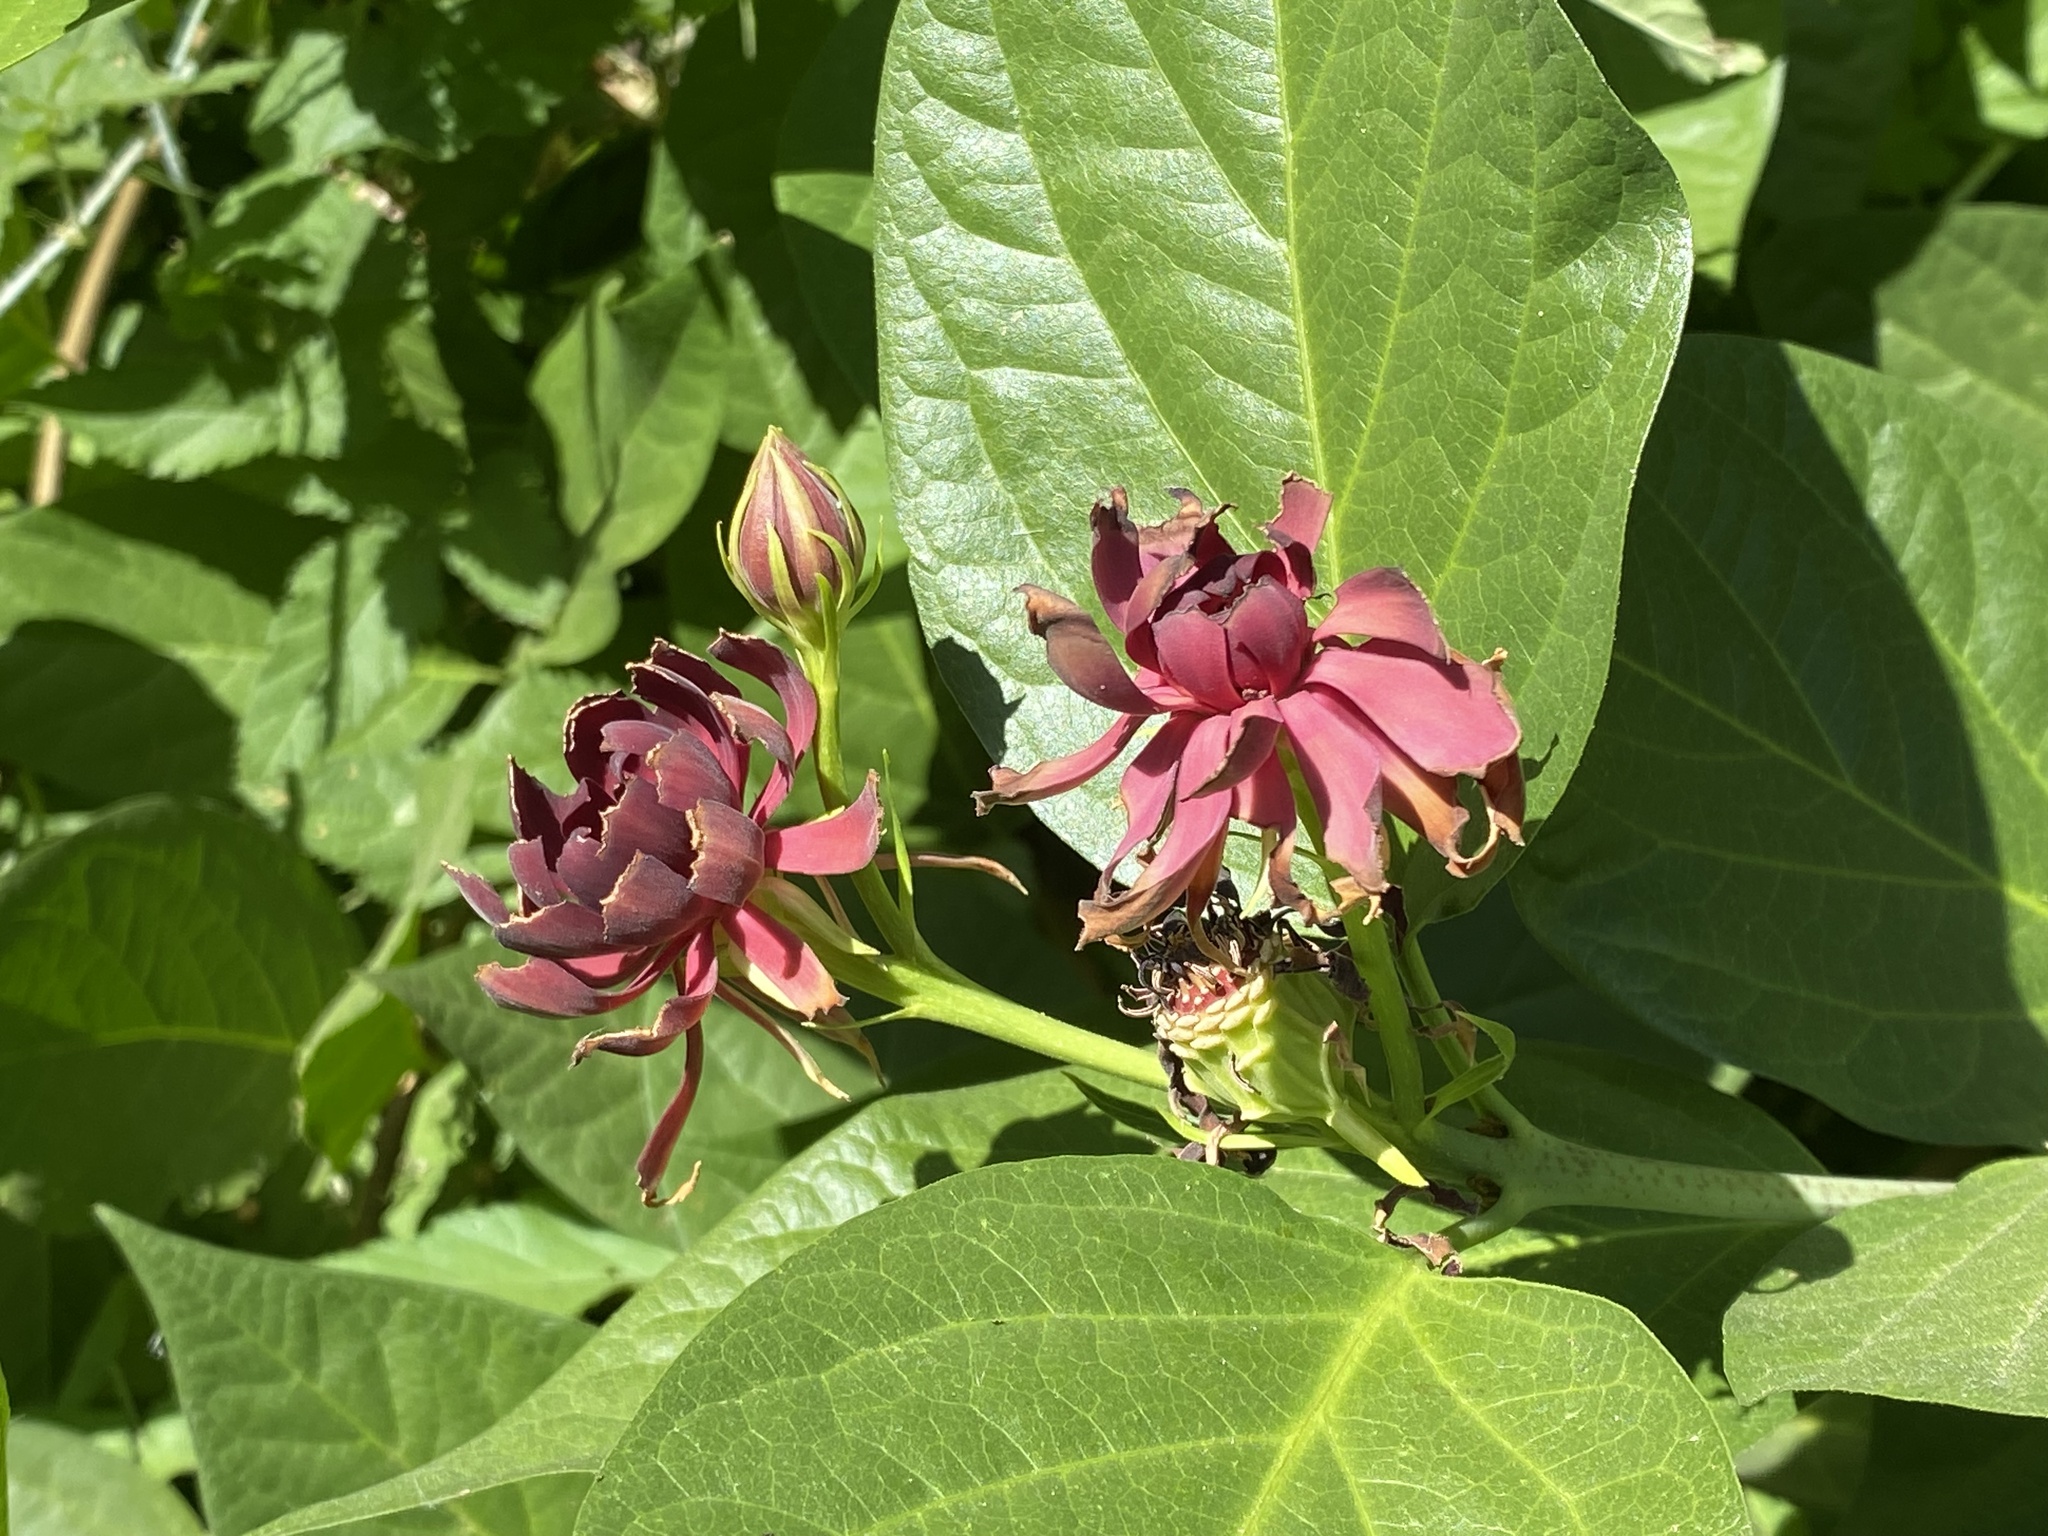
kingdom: Plantae
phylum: Tracheophyta
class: Magnoliopsida
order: Laurales
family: Calycanthaceae
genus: Calycanthus
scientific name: Calycanthus occidentalis
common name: California spicebush
